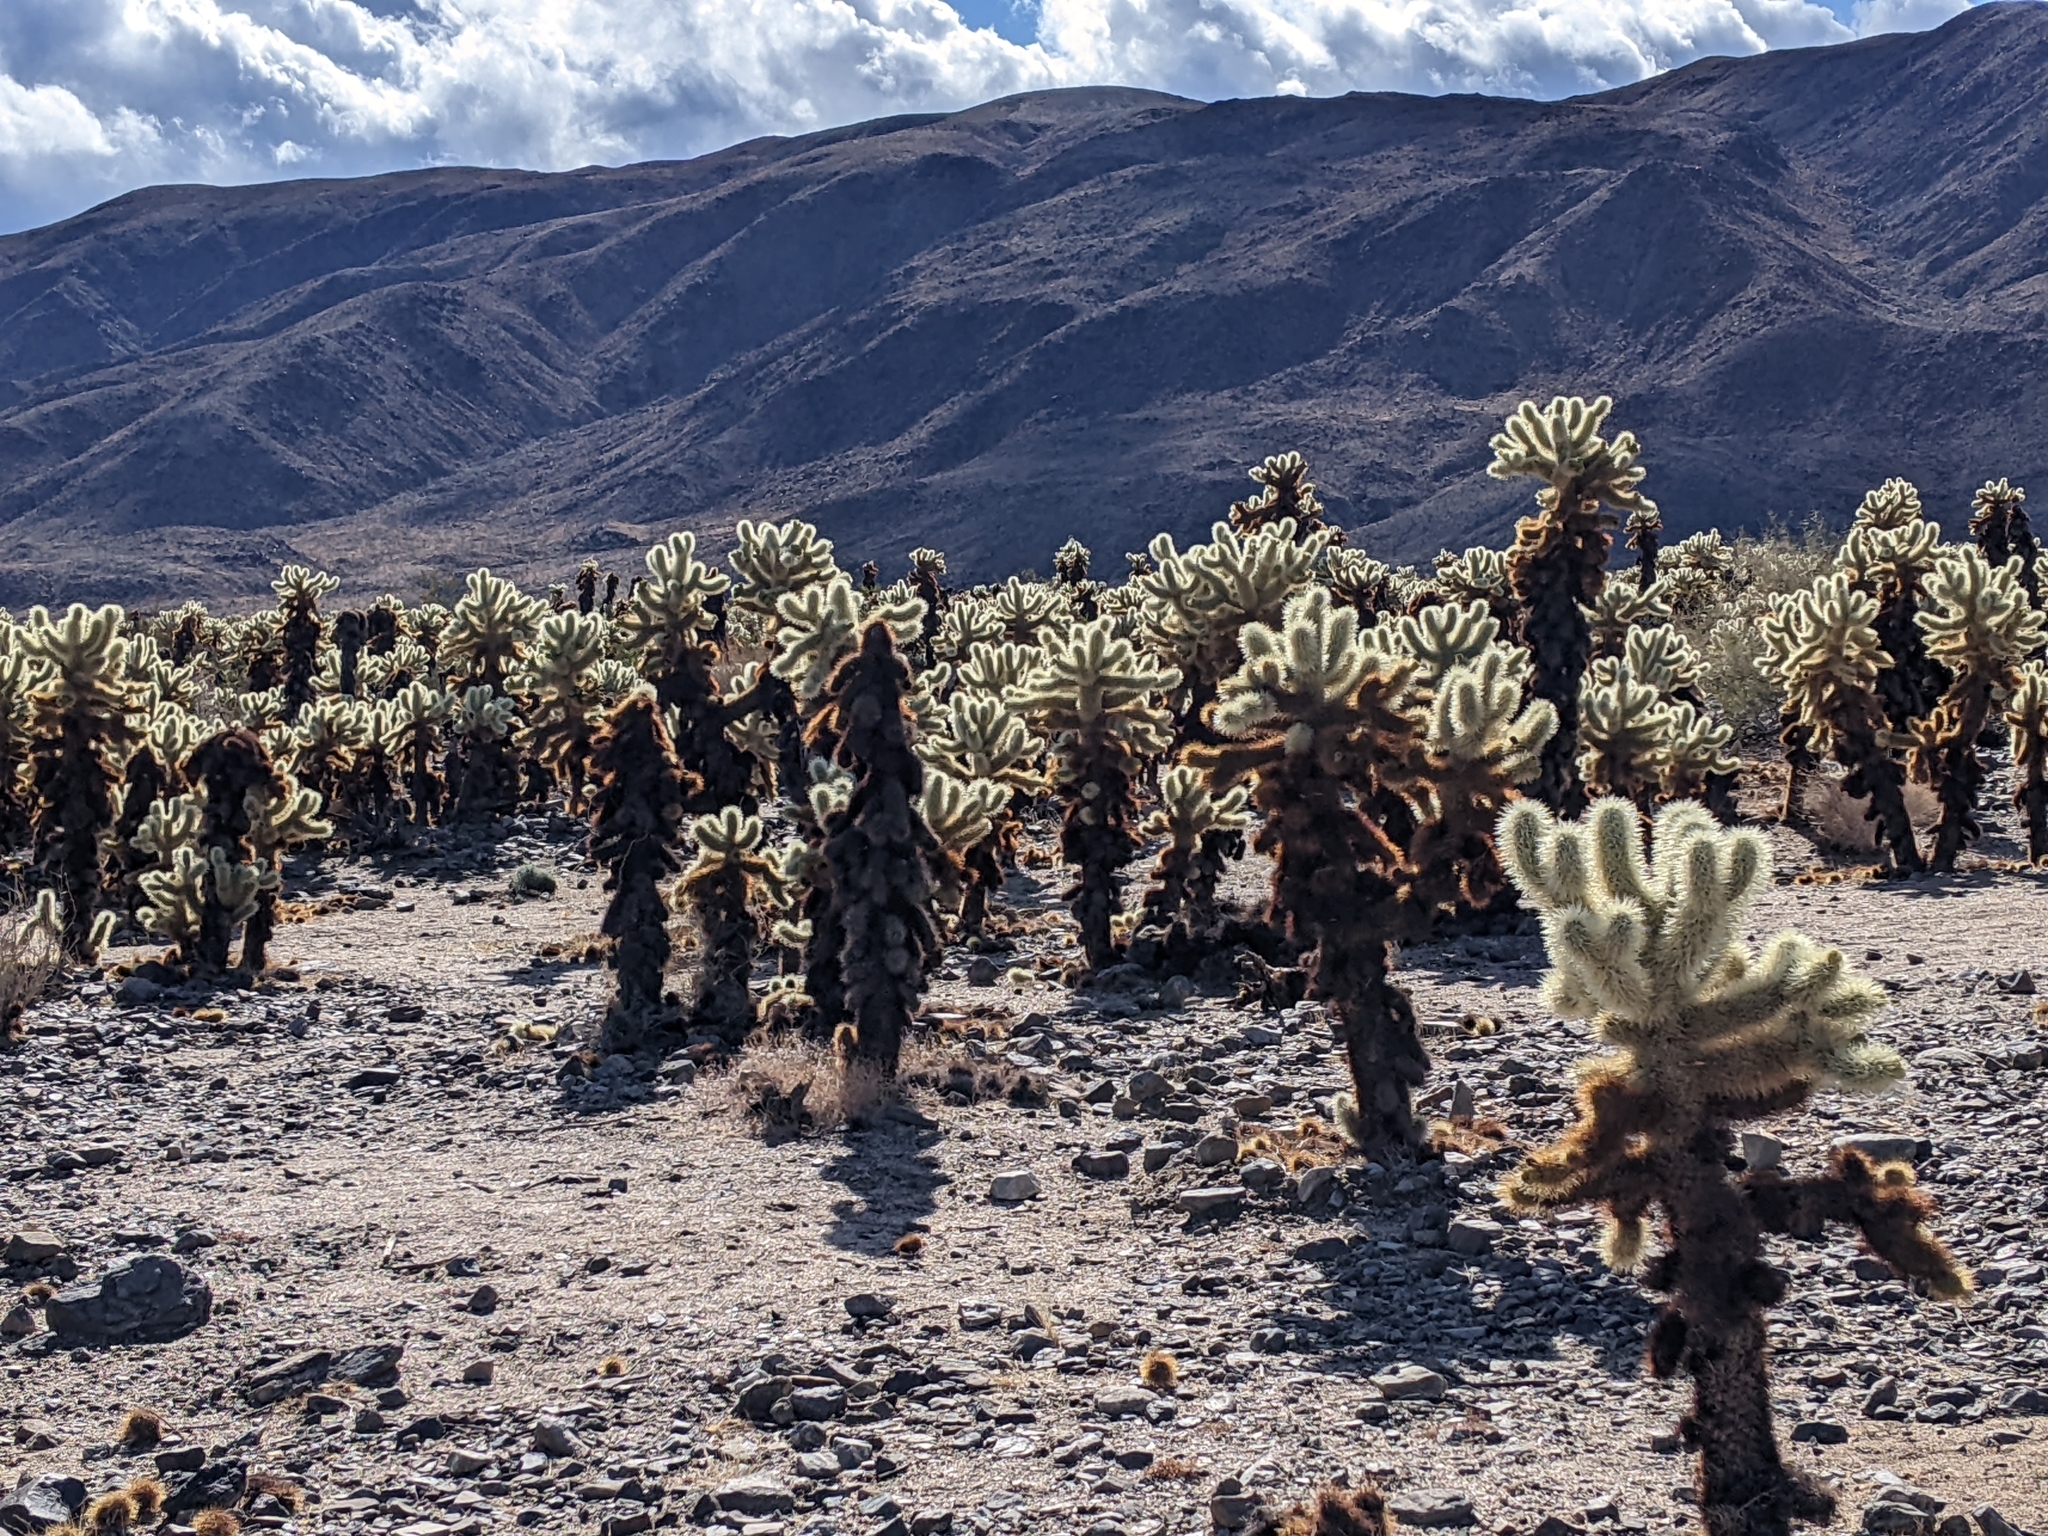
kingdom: Plantae
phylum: Tracheophyta
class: Magnoliopsida
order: Caryophyllales
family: Cactaceae
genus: Cylindropuntia
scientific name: Cylindropuntia fosbergii
